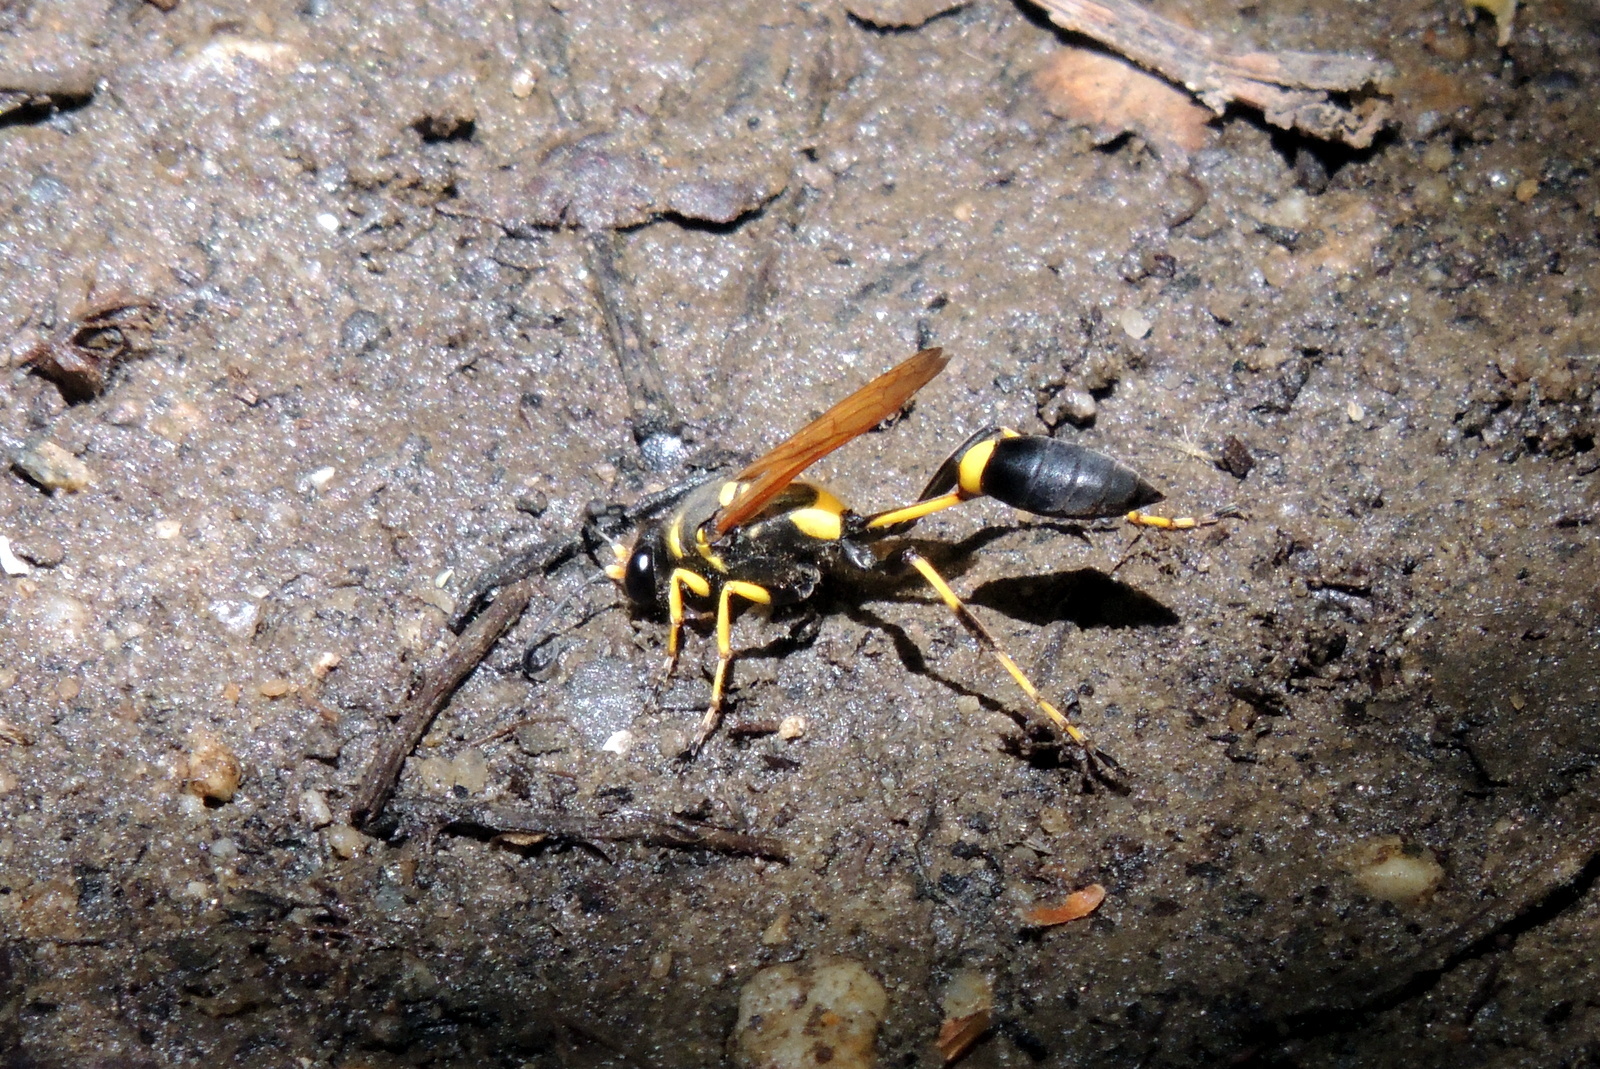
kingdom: Animalia
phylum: Arthropoda
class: Insecta
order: Hymenoptera
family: Sphecidae
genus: Sceliphron
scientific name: Sceliphron caementarium
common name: Mud dauber
